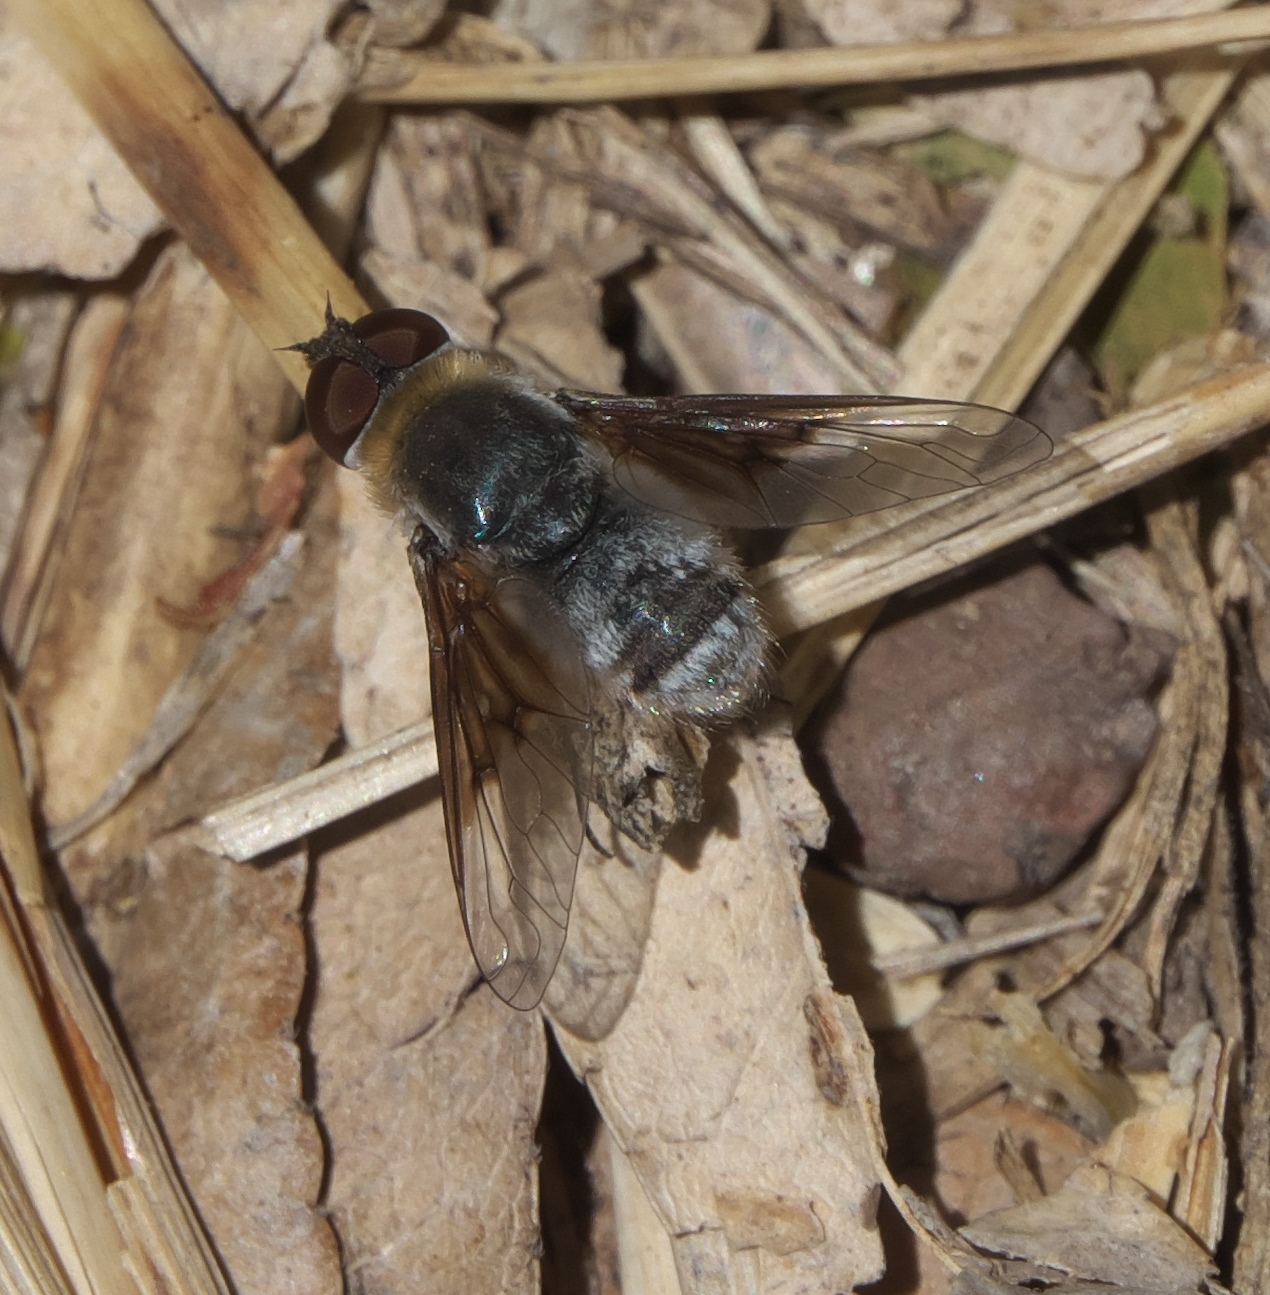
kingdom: Animalia
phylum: Arthropoda
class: Insecta
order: Diptera
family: Bombyliidae
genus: Paravilla
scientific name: Paravilla cunicula
